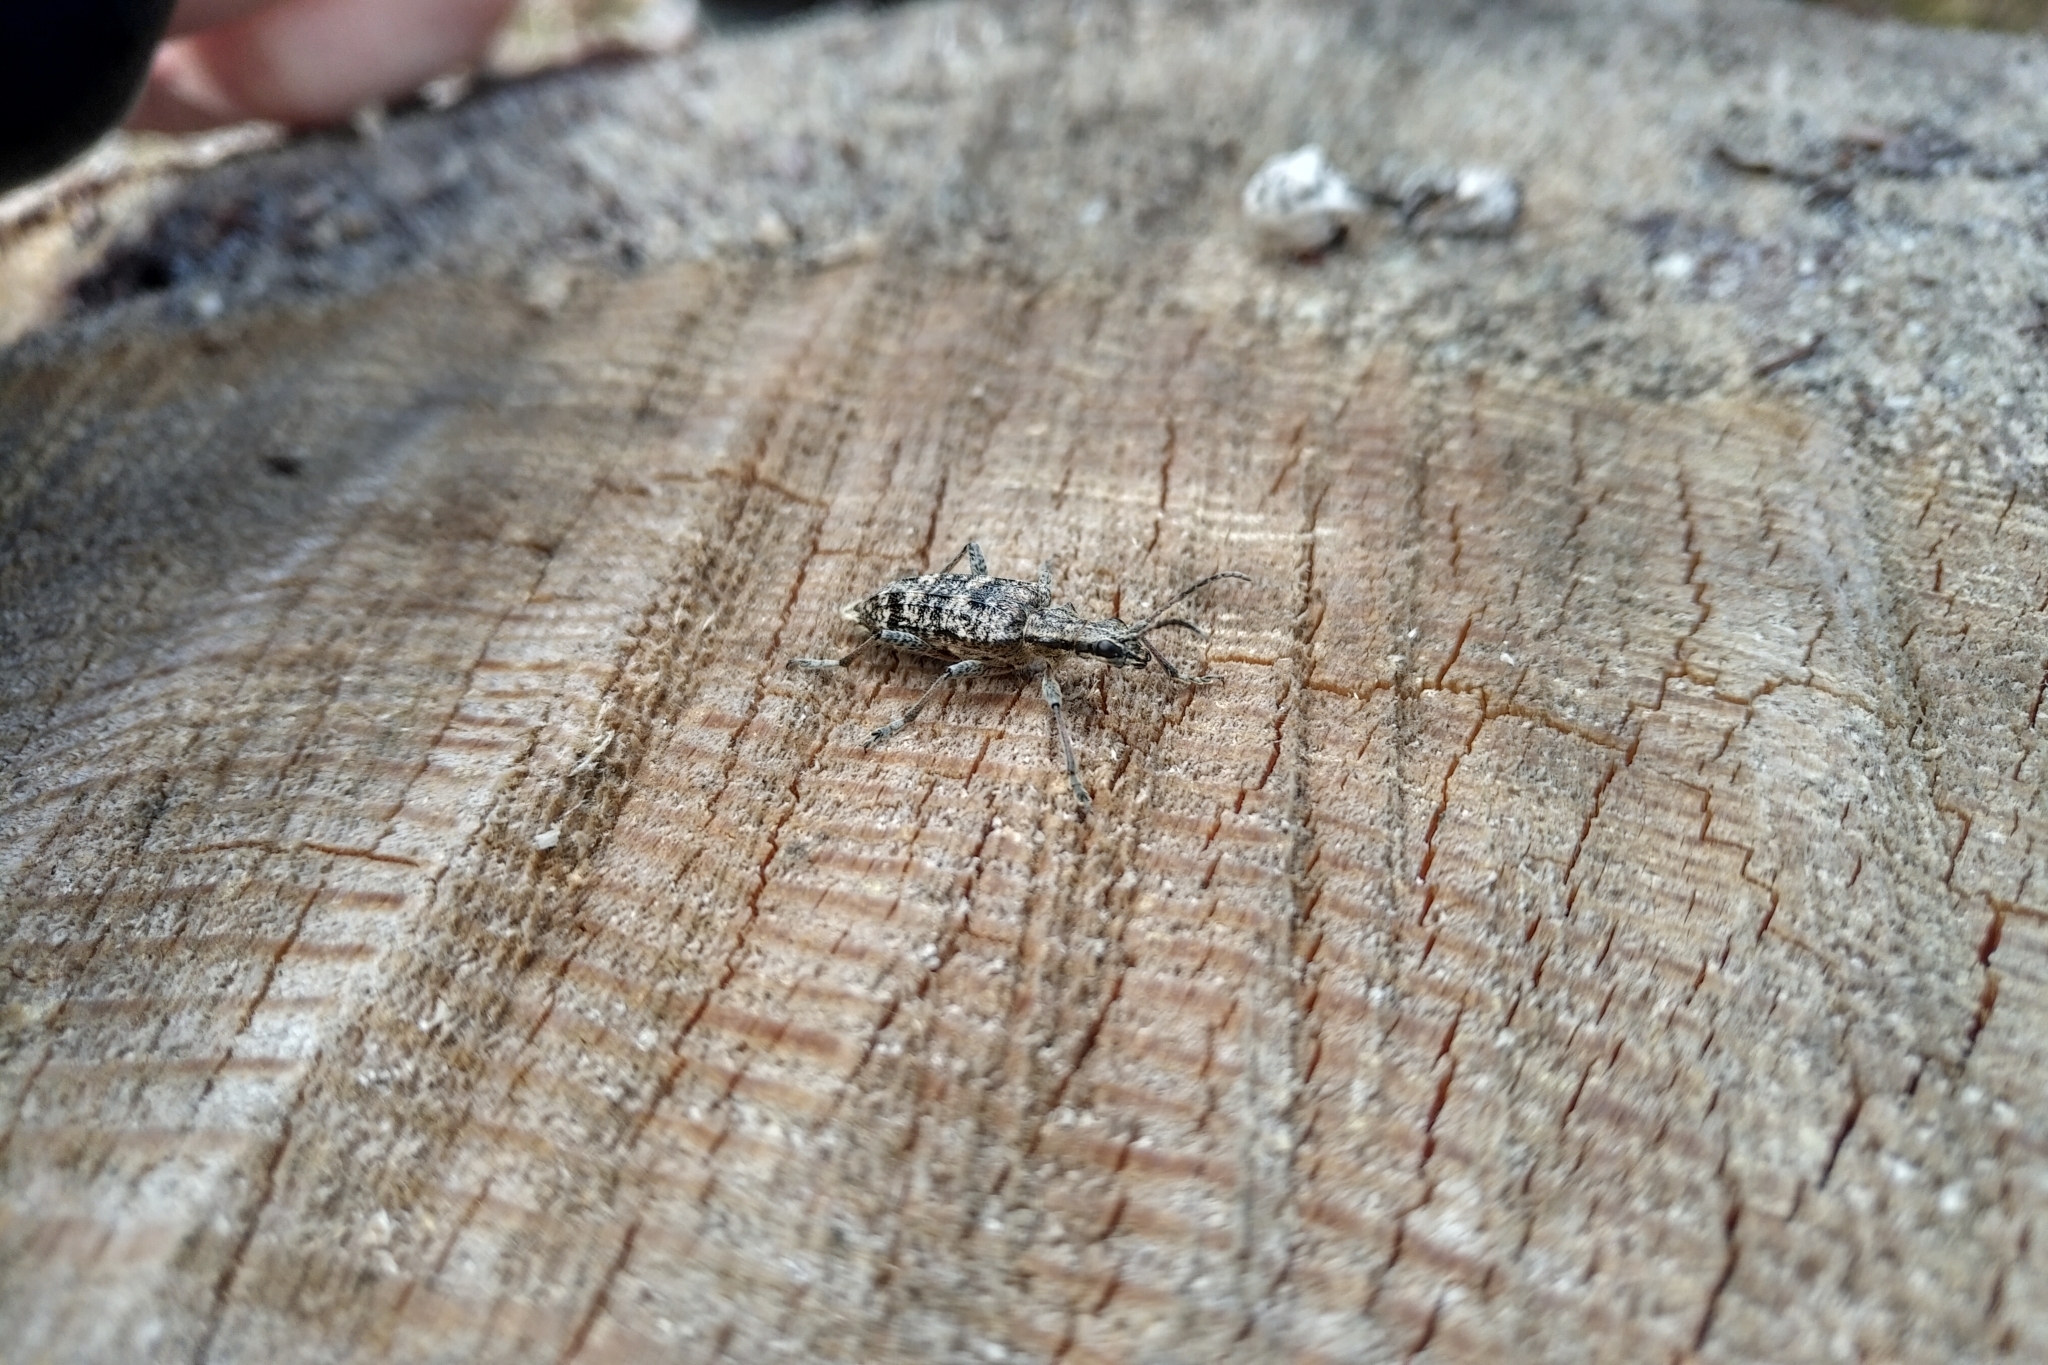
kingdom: Animalia
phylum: Arthropoda
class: Insecta
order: Coleoptera
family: Cerambycidae
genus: Rhagium
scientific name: Rhagium inquisitor
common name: Ribbed pine borer
